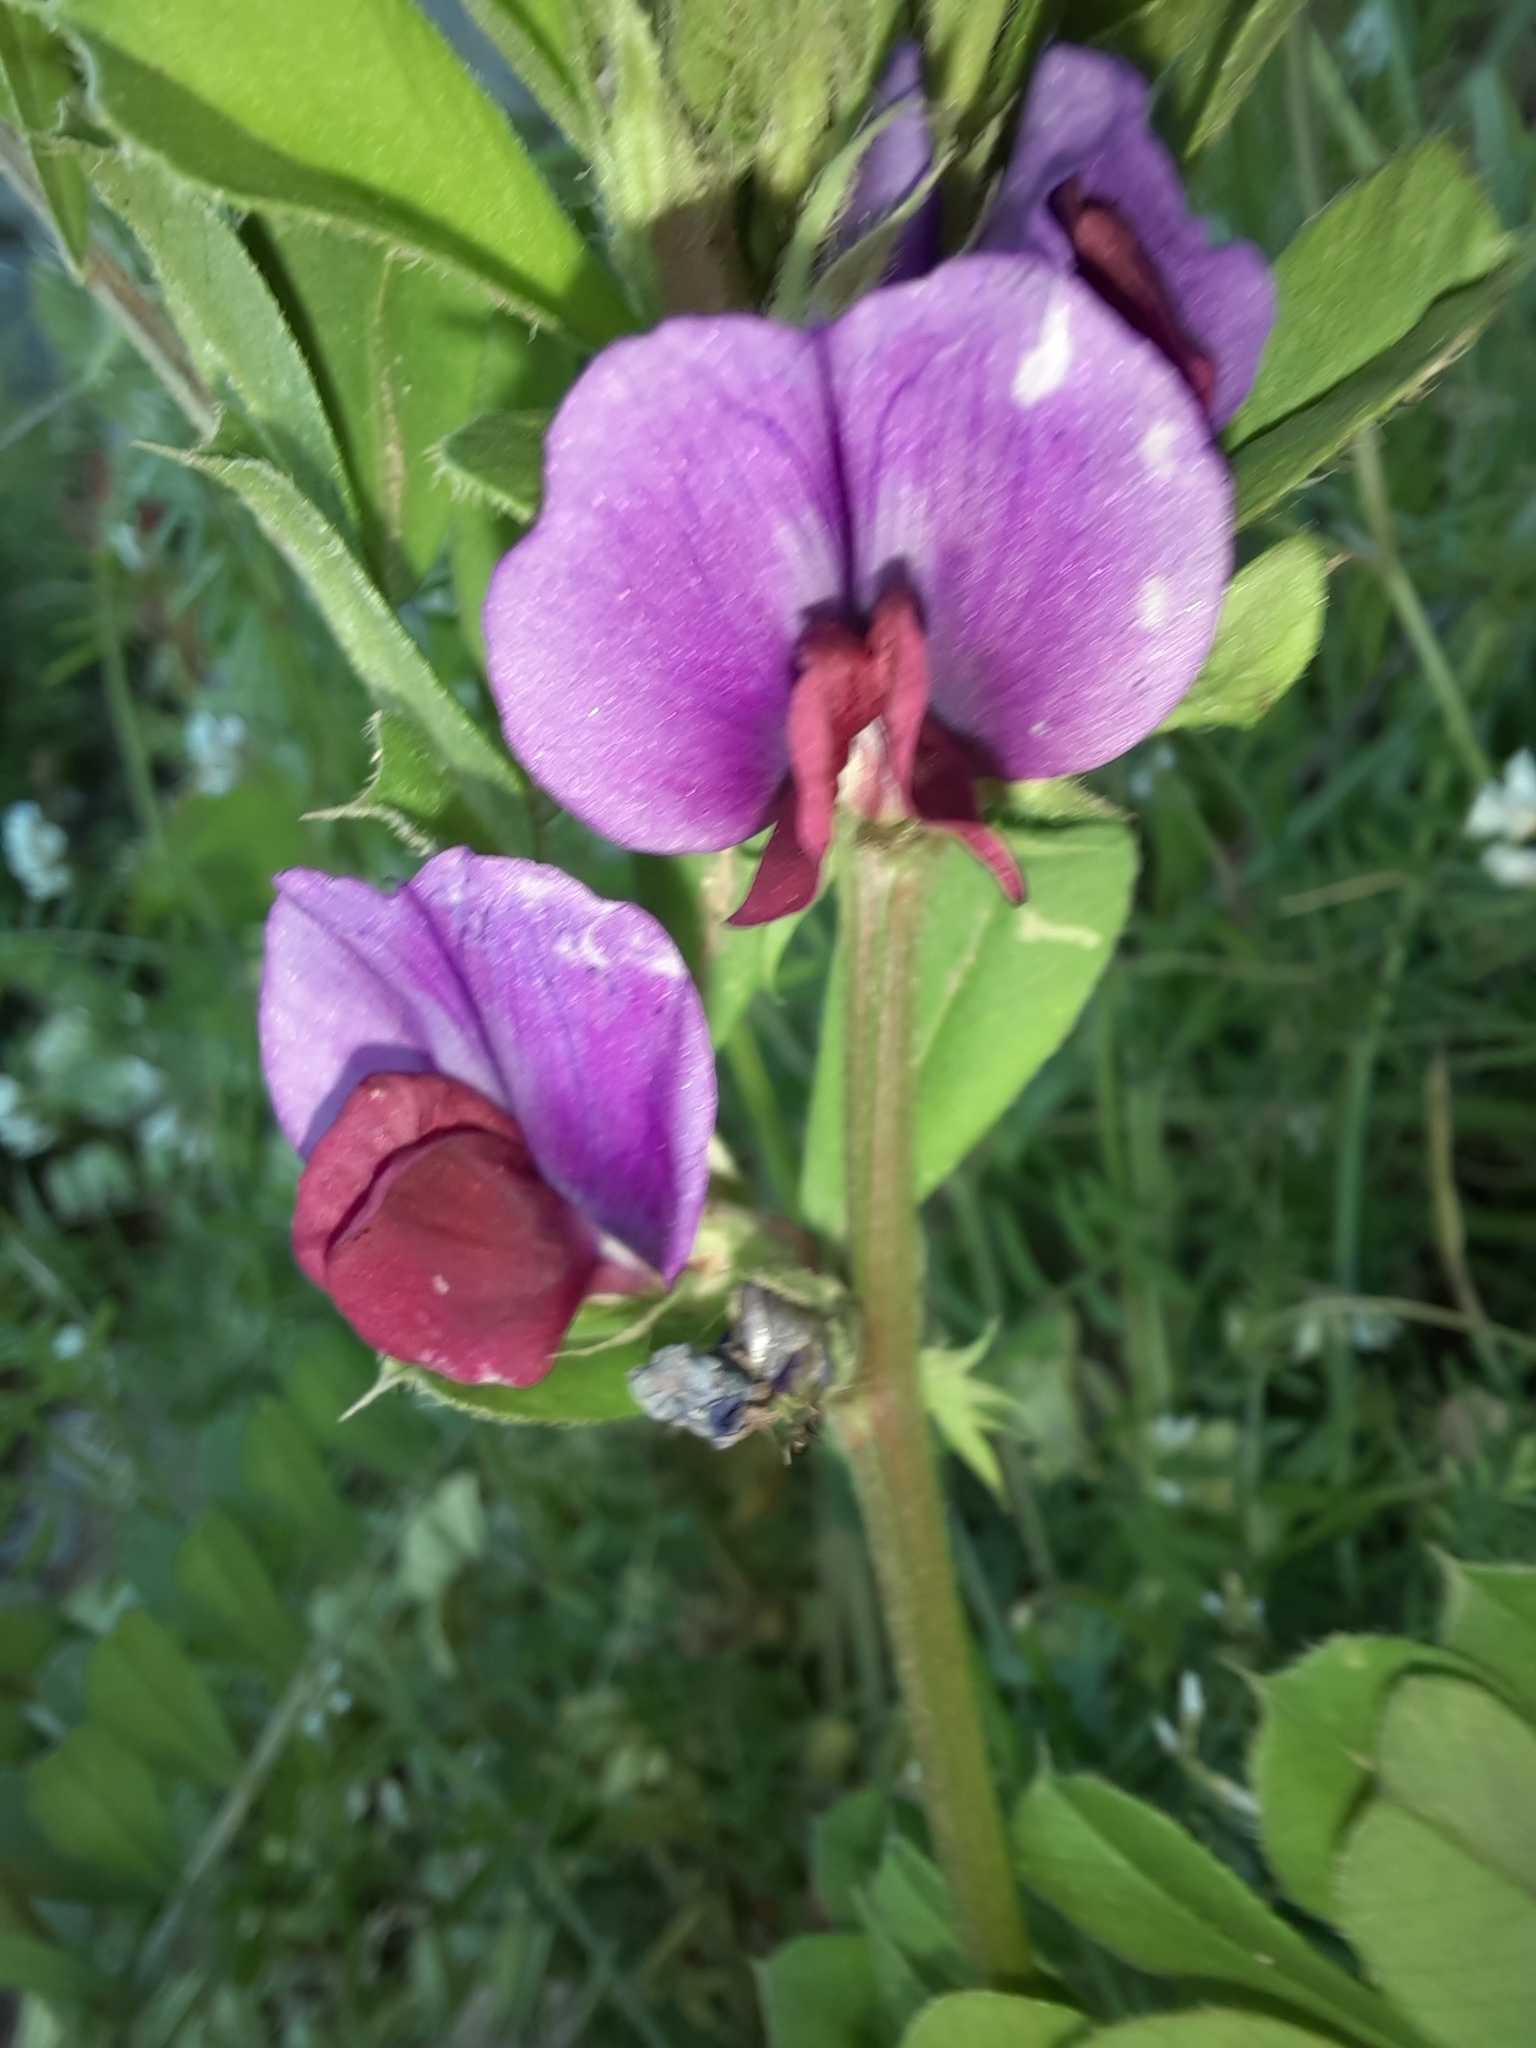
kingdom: Plantae
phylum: Tracheophyta
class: Magnoliopsida
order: Fabales
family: Fabaceae
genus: Vicia
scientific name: Vicia sativa
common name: Garden vetch
